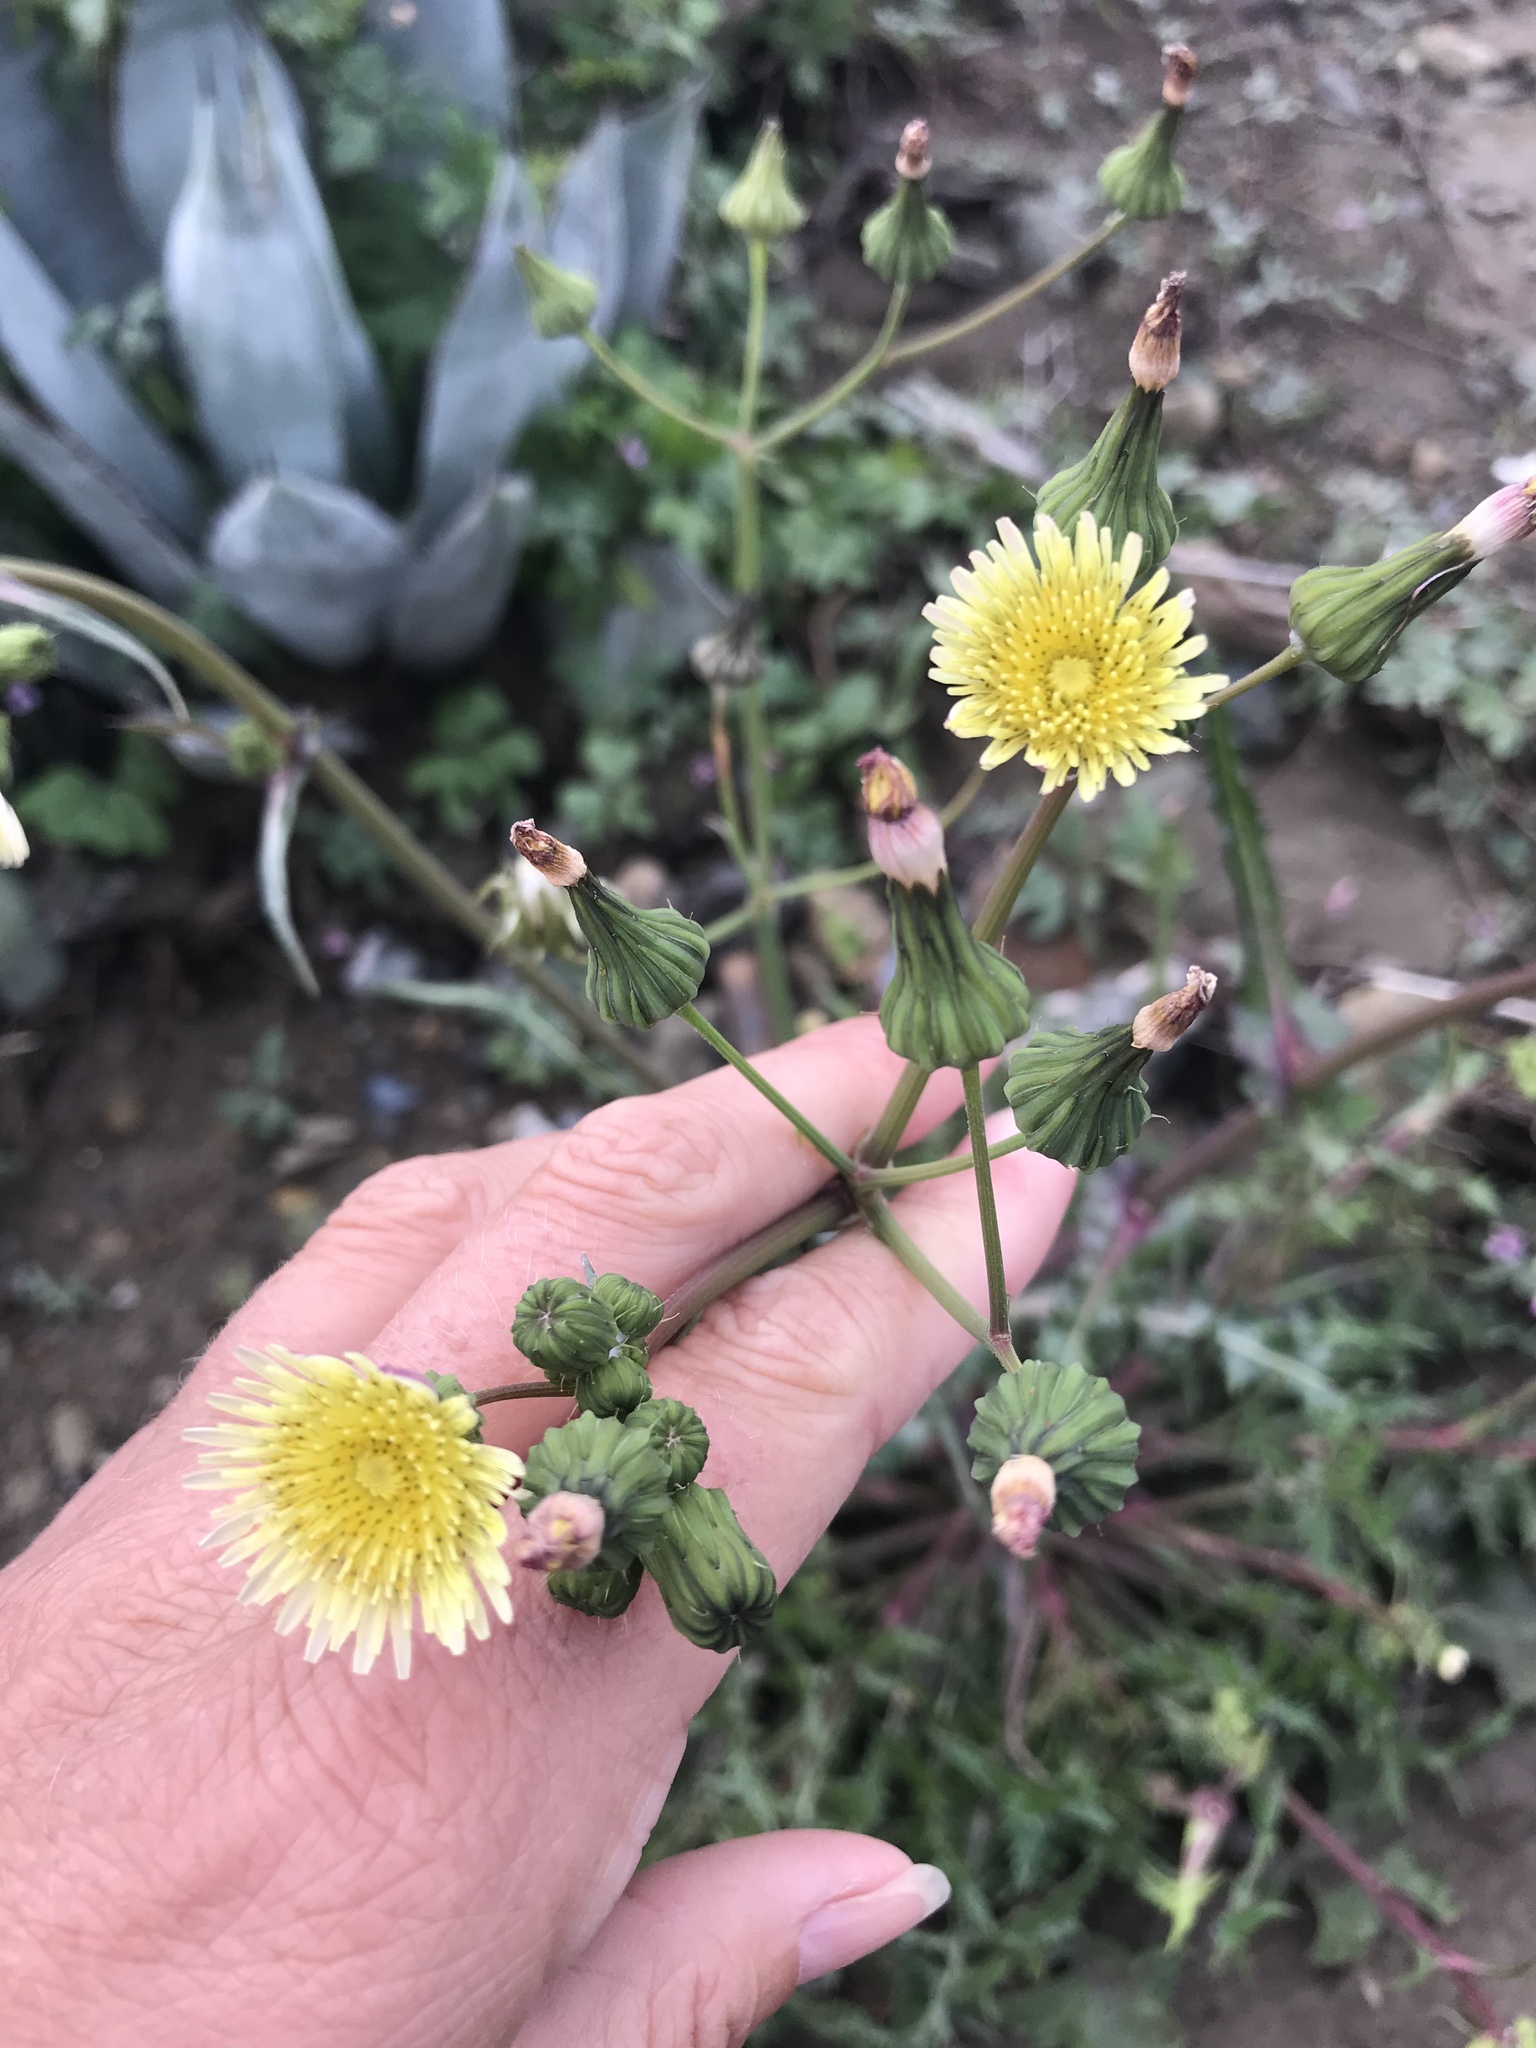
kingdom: Plantae
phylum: Tracheophyta
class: Magnoliopsida
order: Asterales
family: Asteraceae
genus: Sonchus
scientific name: Sonchus oleraceus
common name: Common sowthistle
